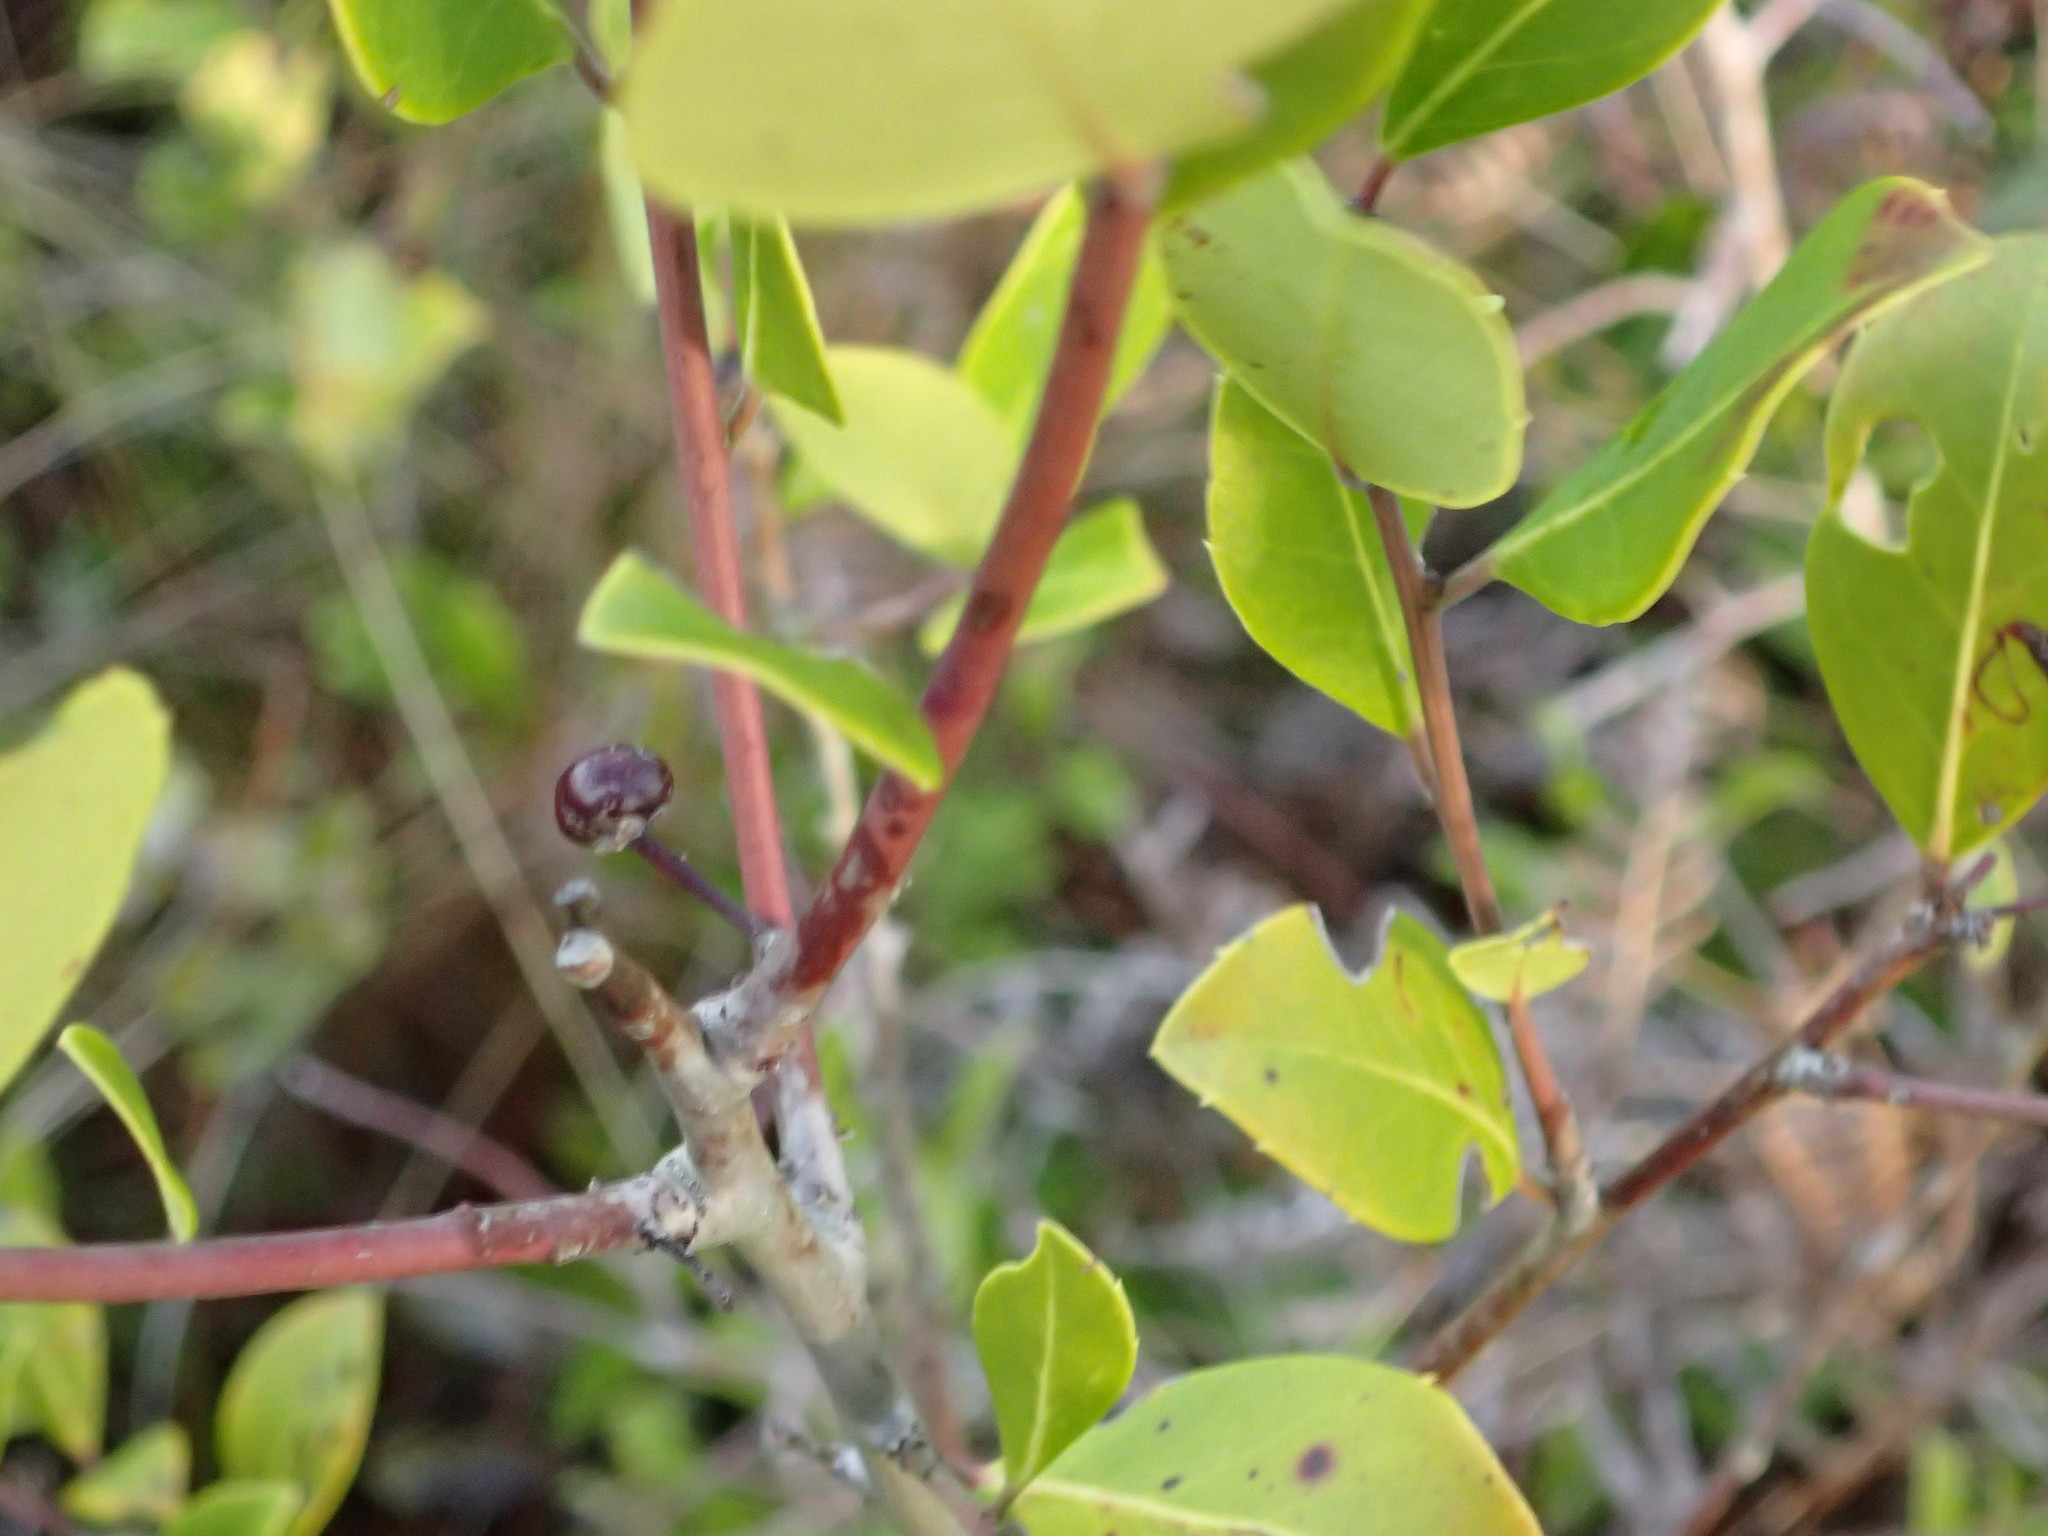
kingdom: Plantae
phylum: Tracheophyta
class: Magnoliopsida
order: Aquifoliales
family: Aquifoliaceae
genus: Ilex
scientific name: Ilex coriacea
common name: Sweet gallberry
